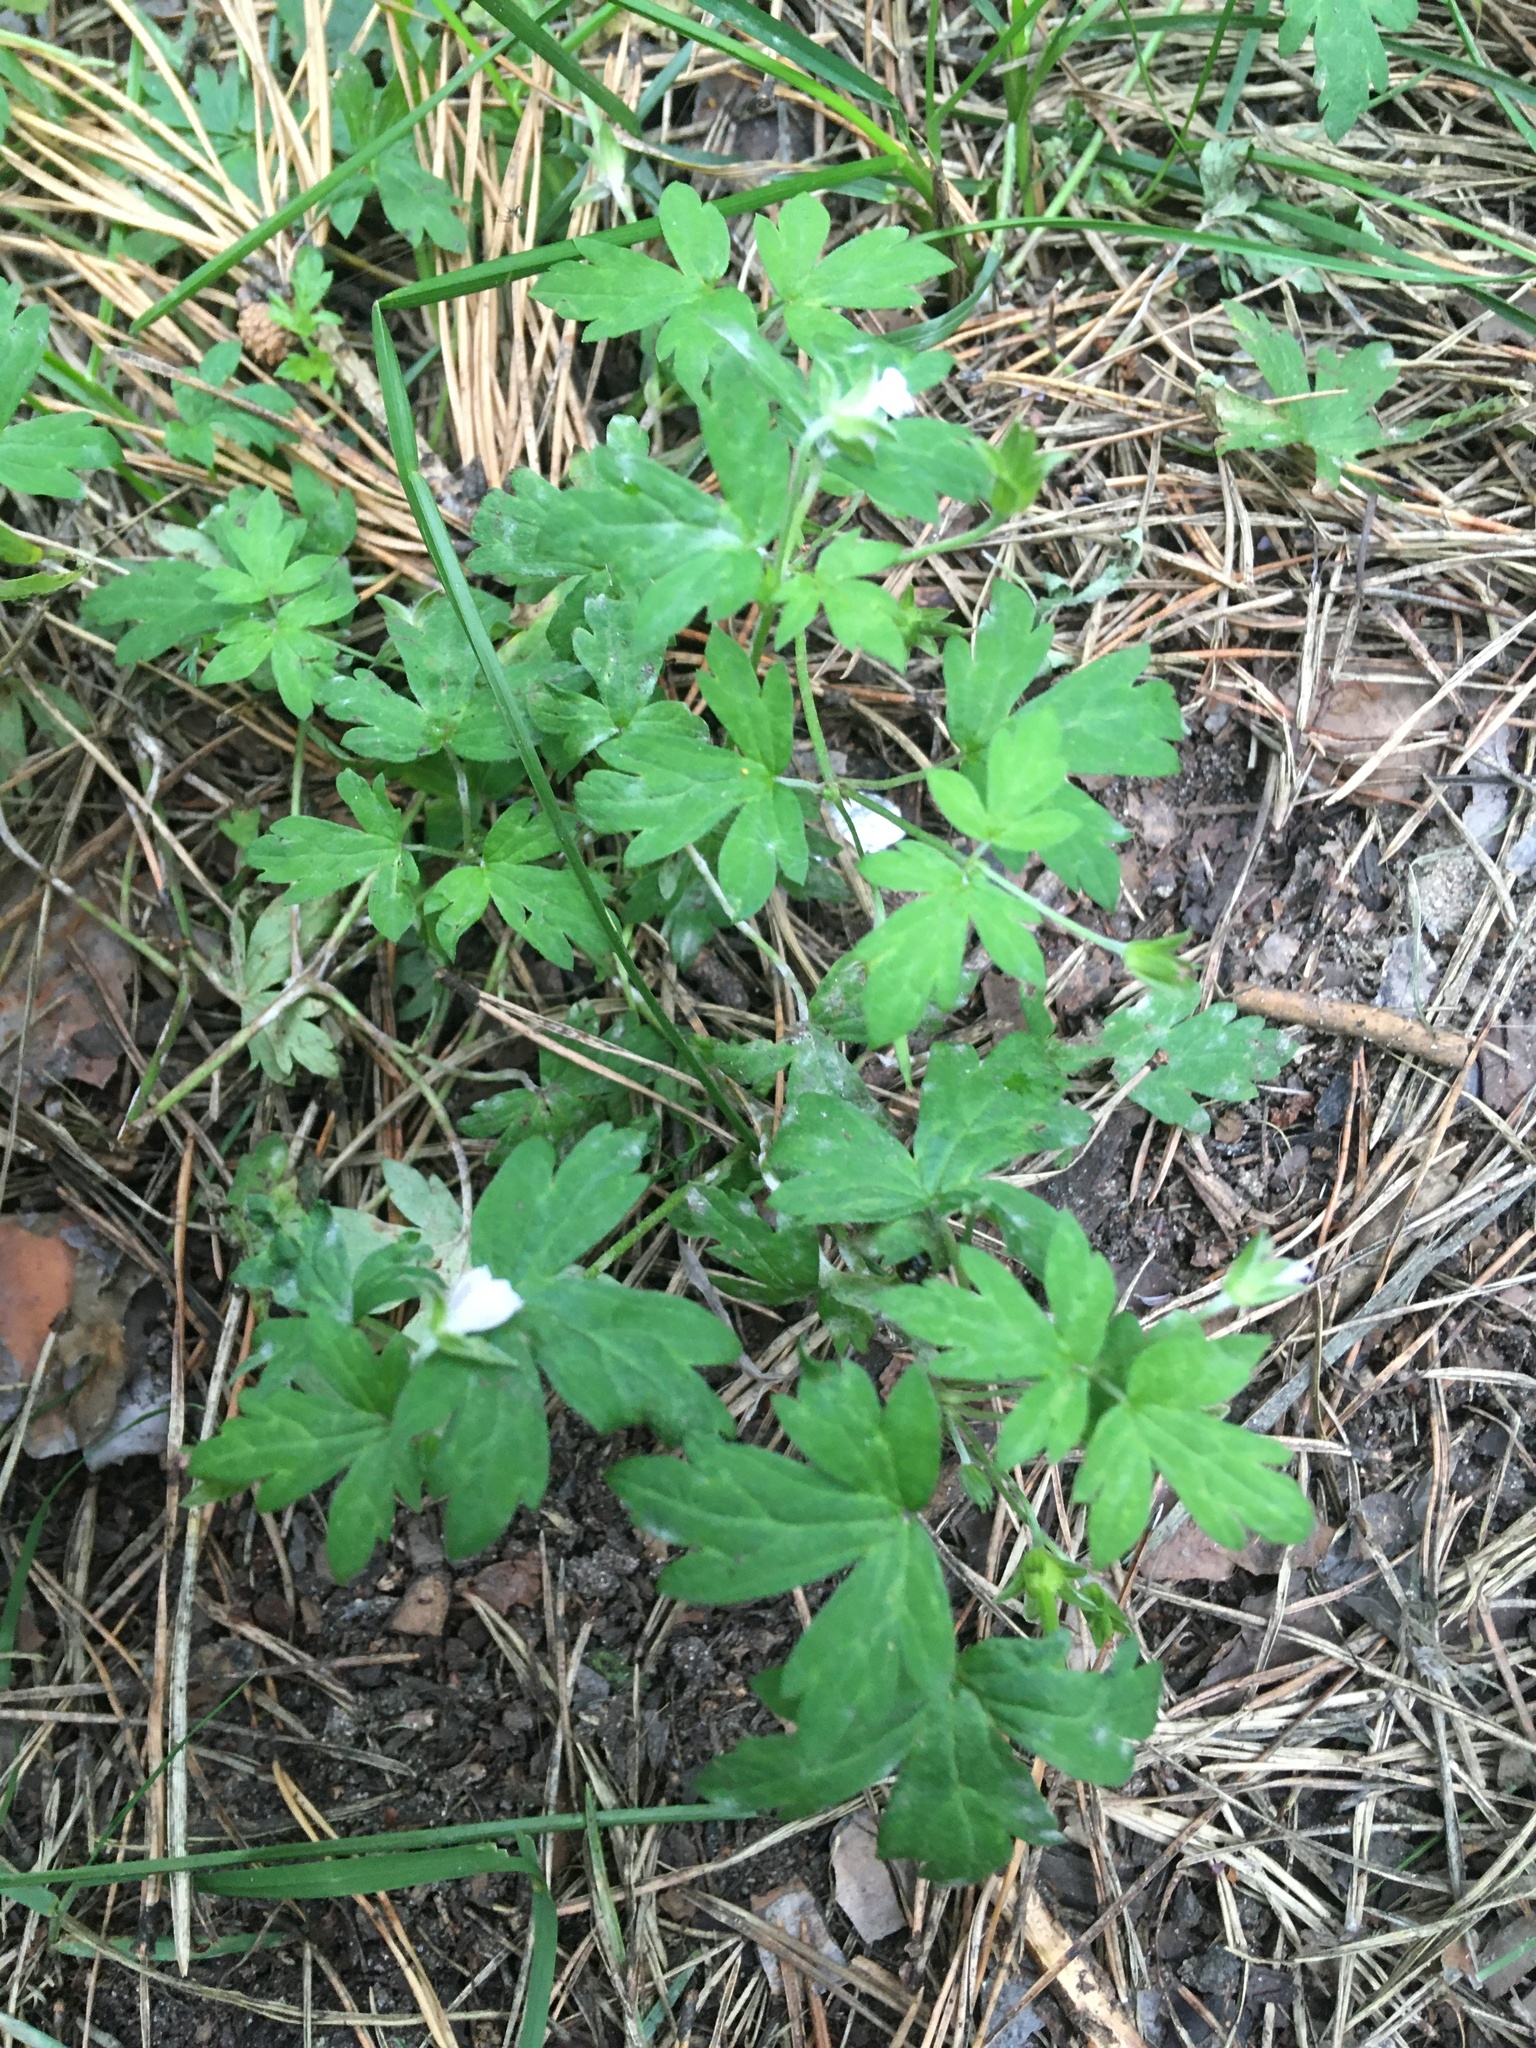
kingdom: Plantae
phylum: Tracheophyta
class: Magnoliopsida
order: Geraniales
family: Geraniaceae
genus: Geranium
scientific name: Geranium sibiricum
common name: Siberian crane's-bill
